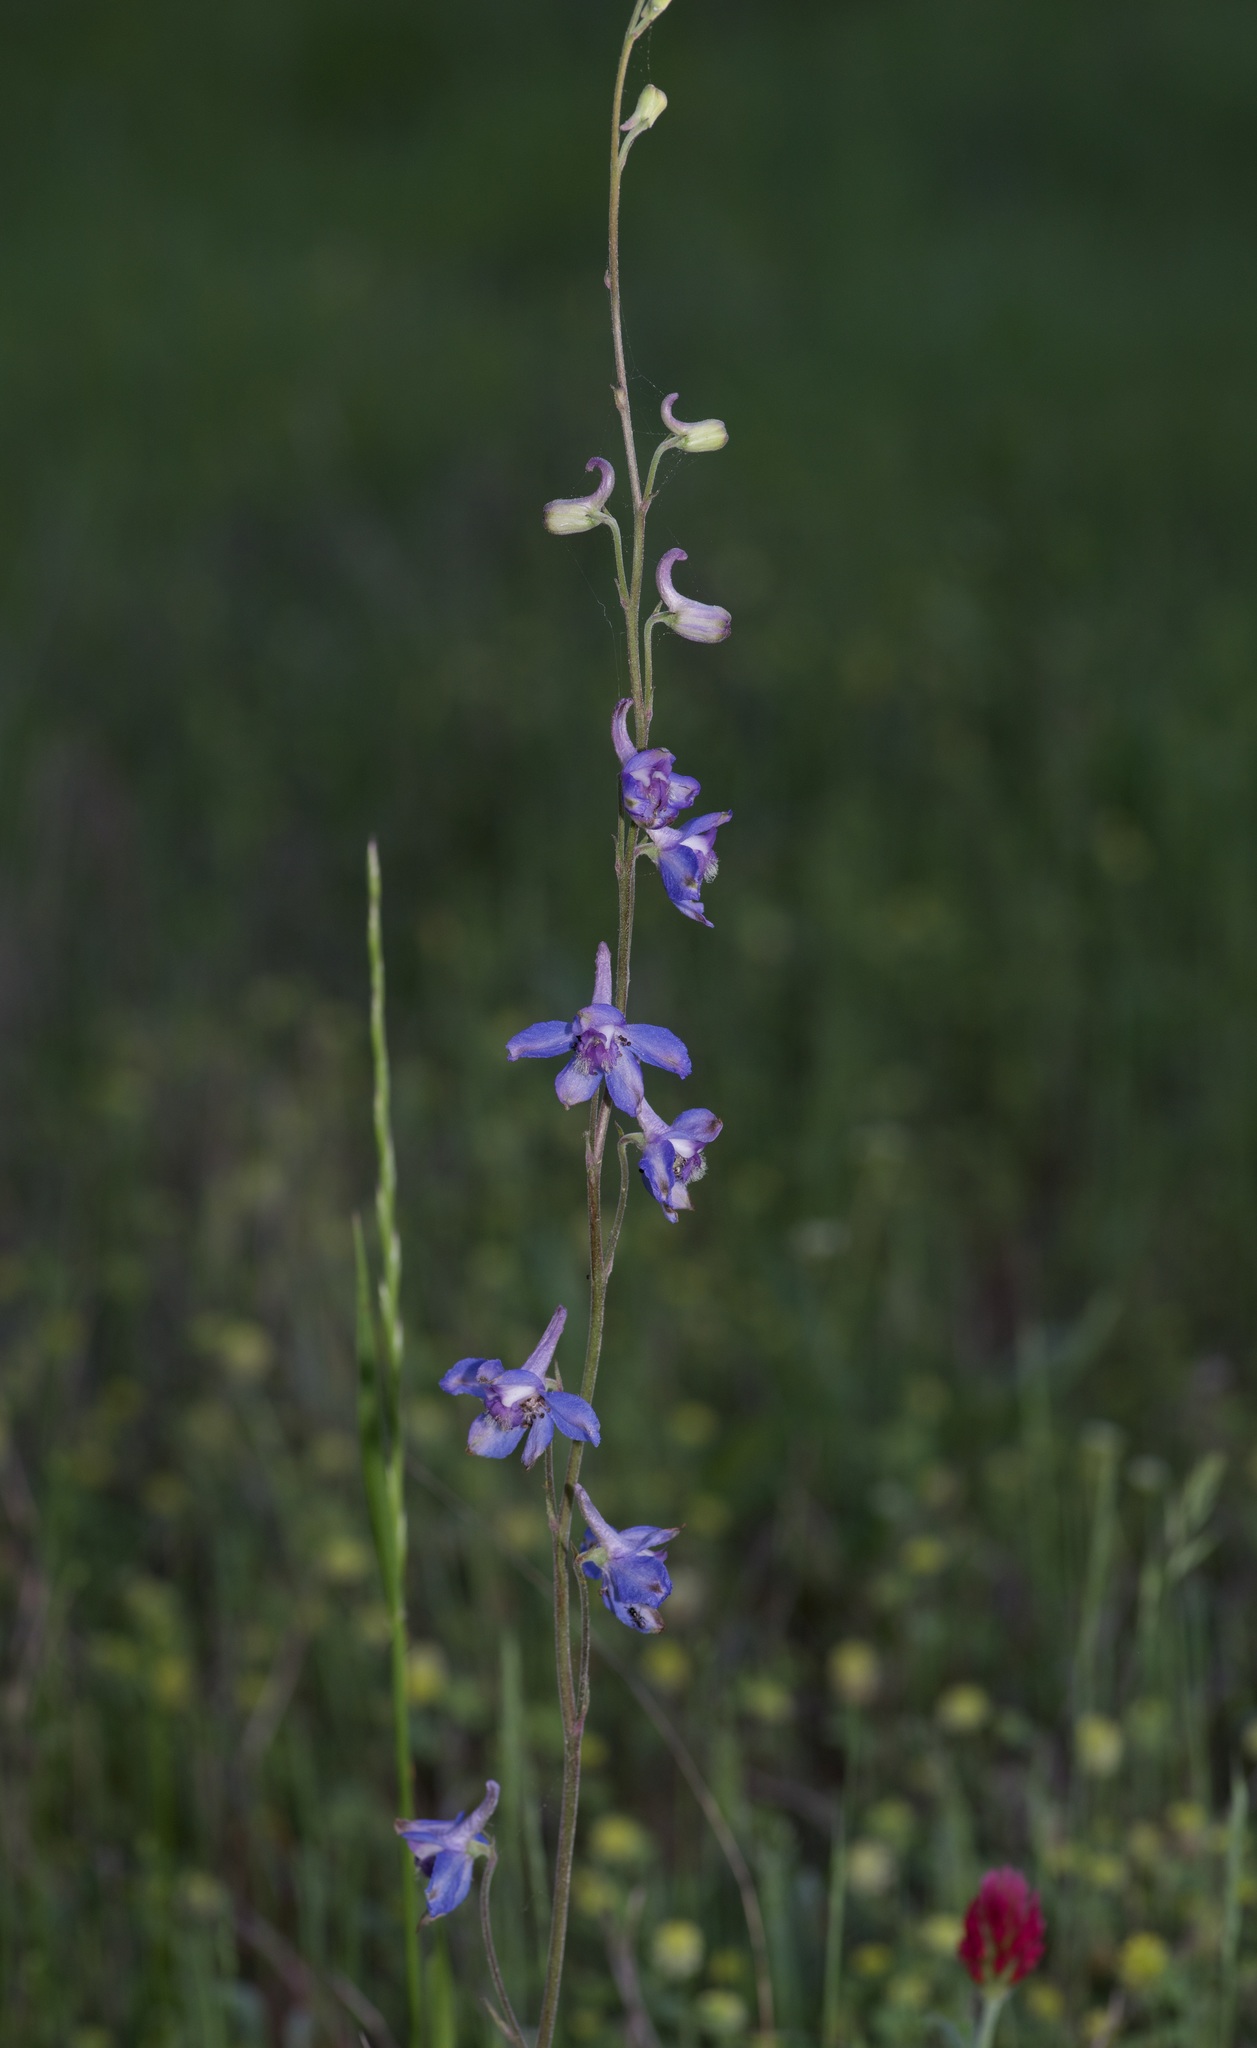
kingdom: Plantae
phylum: Tracheophyta
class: Magnoliopsida
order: Ranunculales
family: Ranunculaceae
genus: Delphinium
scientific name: Delphinium carolinianum
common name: Carolina larkspur
